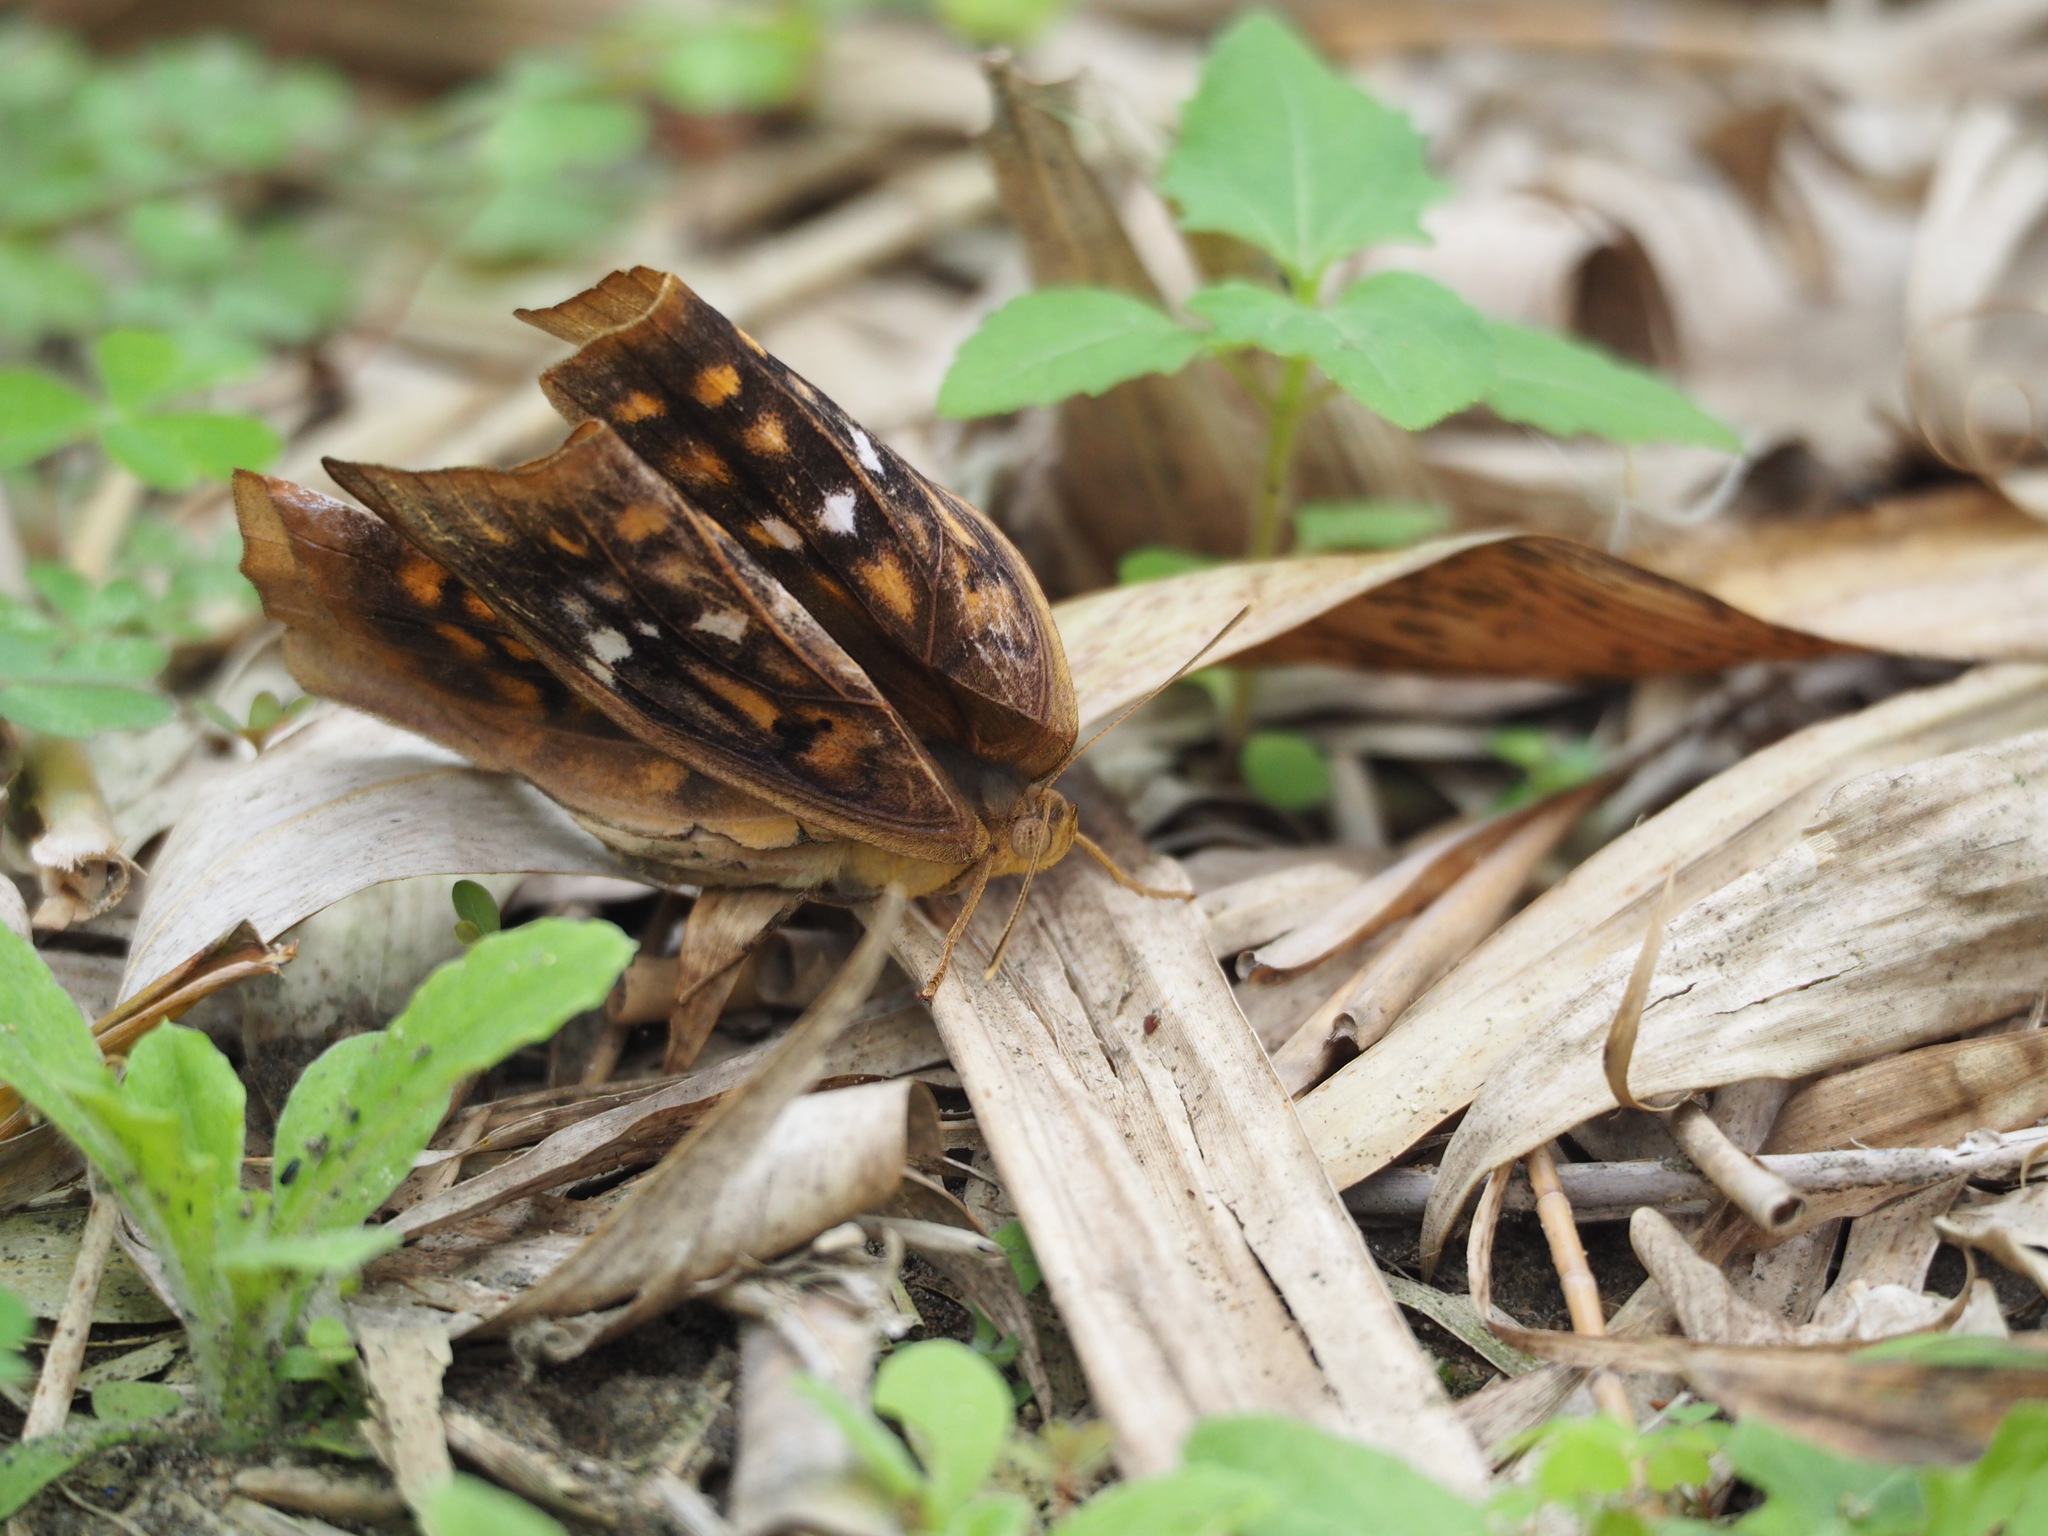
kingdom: Animalia
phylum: Arthropoda
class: Insecta
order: Lepidoptera
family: Nymphalidae
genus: Discophora
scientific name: Discophora sondaica
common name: Common duffer
